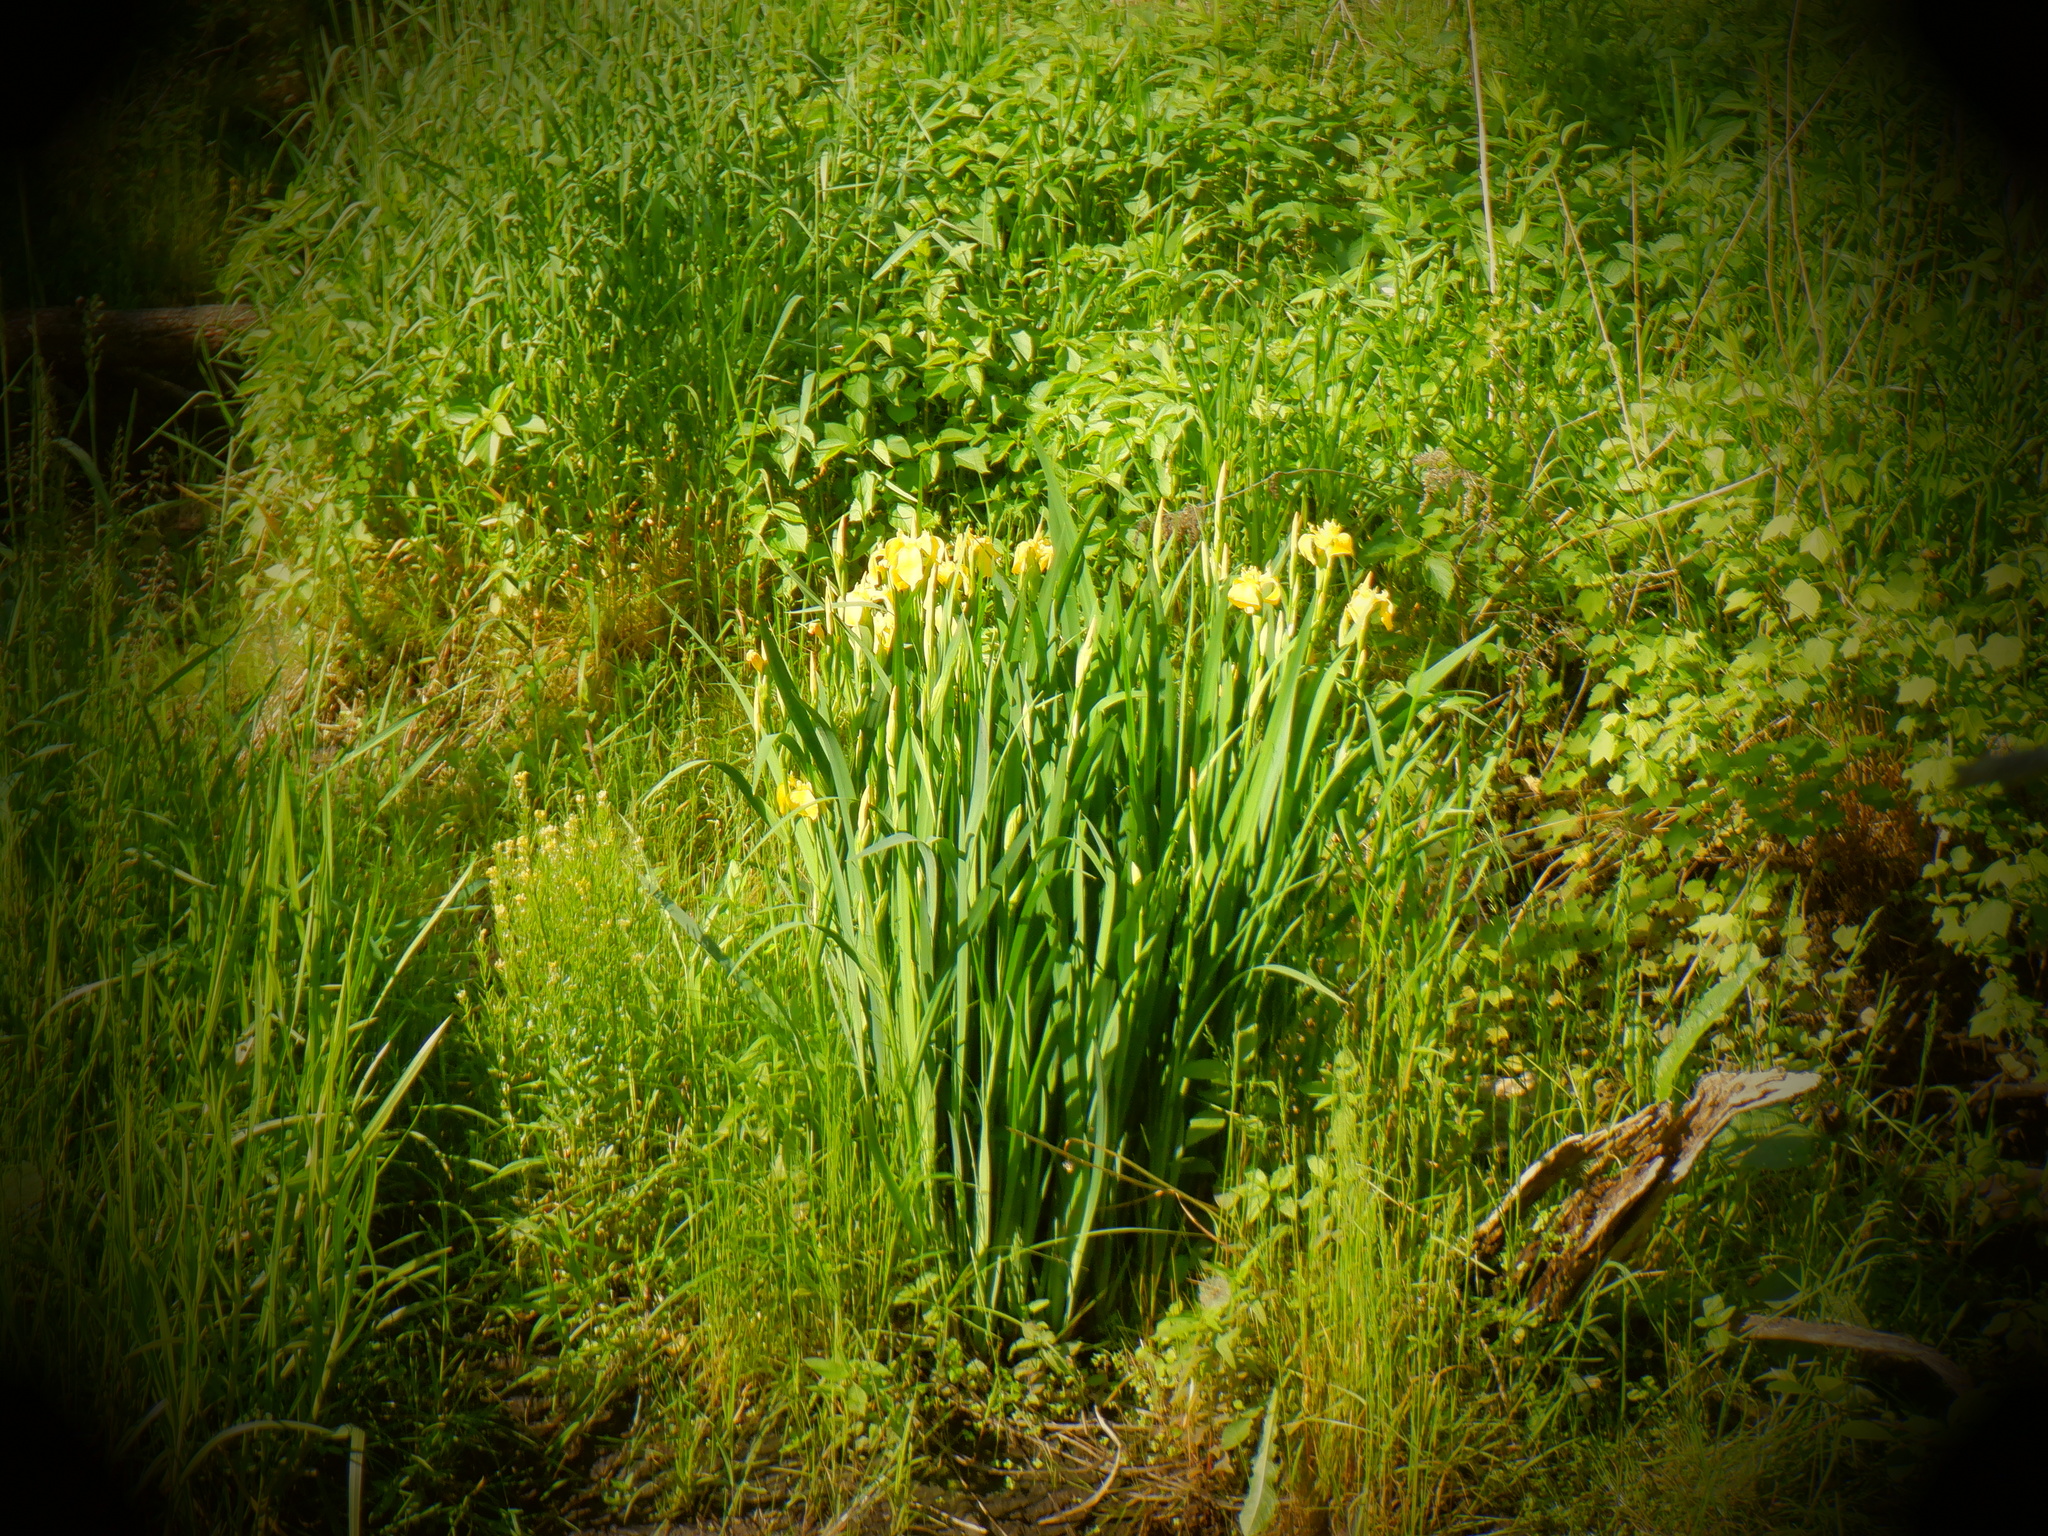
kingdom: Plantae
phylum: Tracheophyta
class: Liliopsida
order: Asparagales
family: Iridaceae
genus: Iris
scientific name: Iris pseudacorus
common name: Yellow flag
